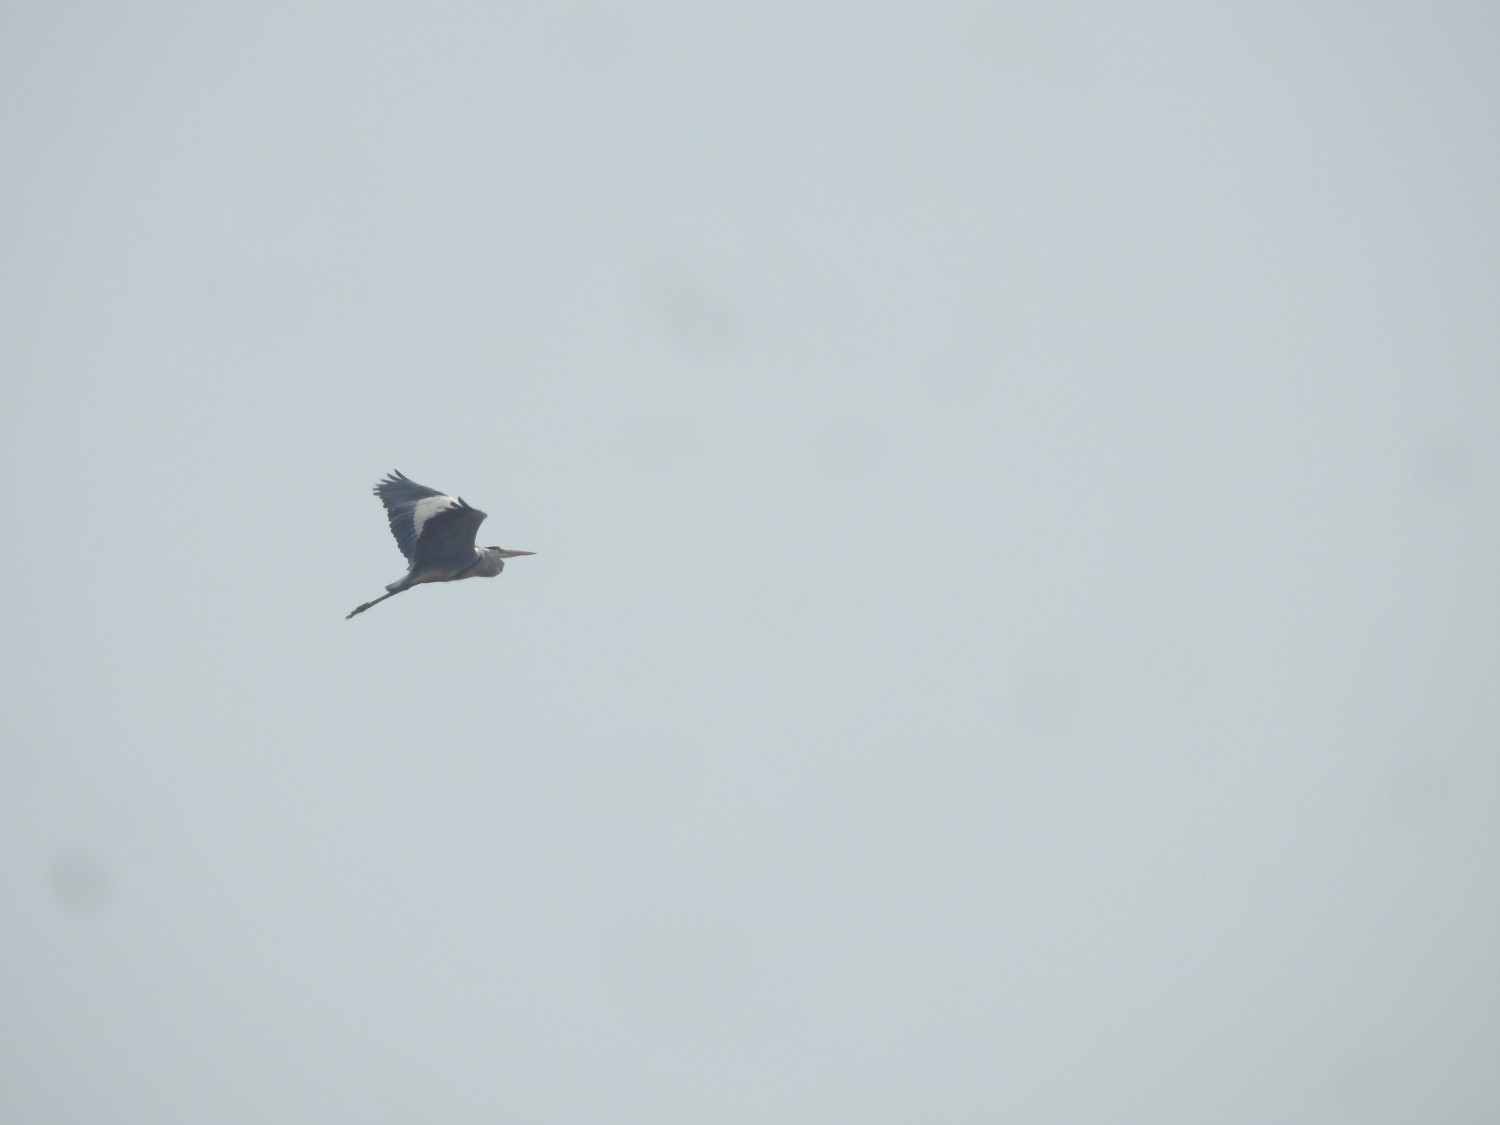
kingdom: Animalia
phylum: Chordata
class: Aves
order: Pelecaniformes
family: Ardeidae
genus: Ardea
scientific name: Ardea cinerea
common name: Grey heron
